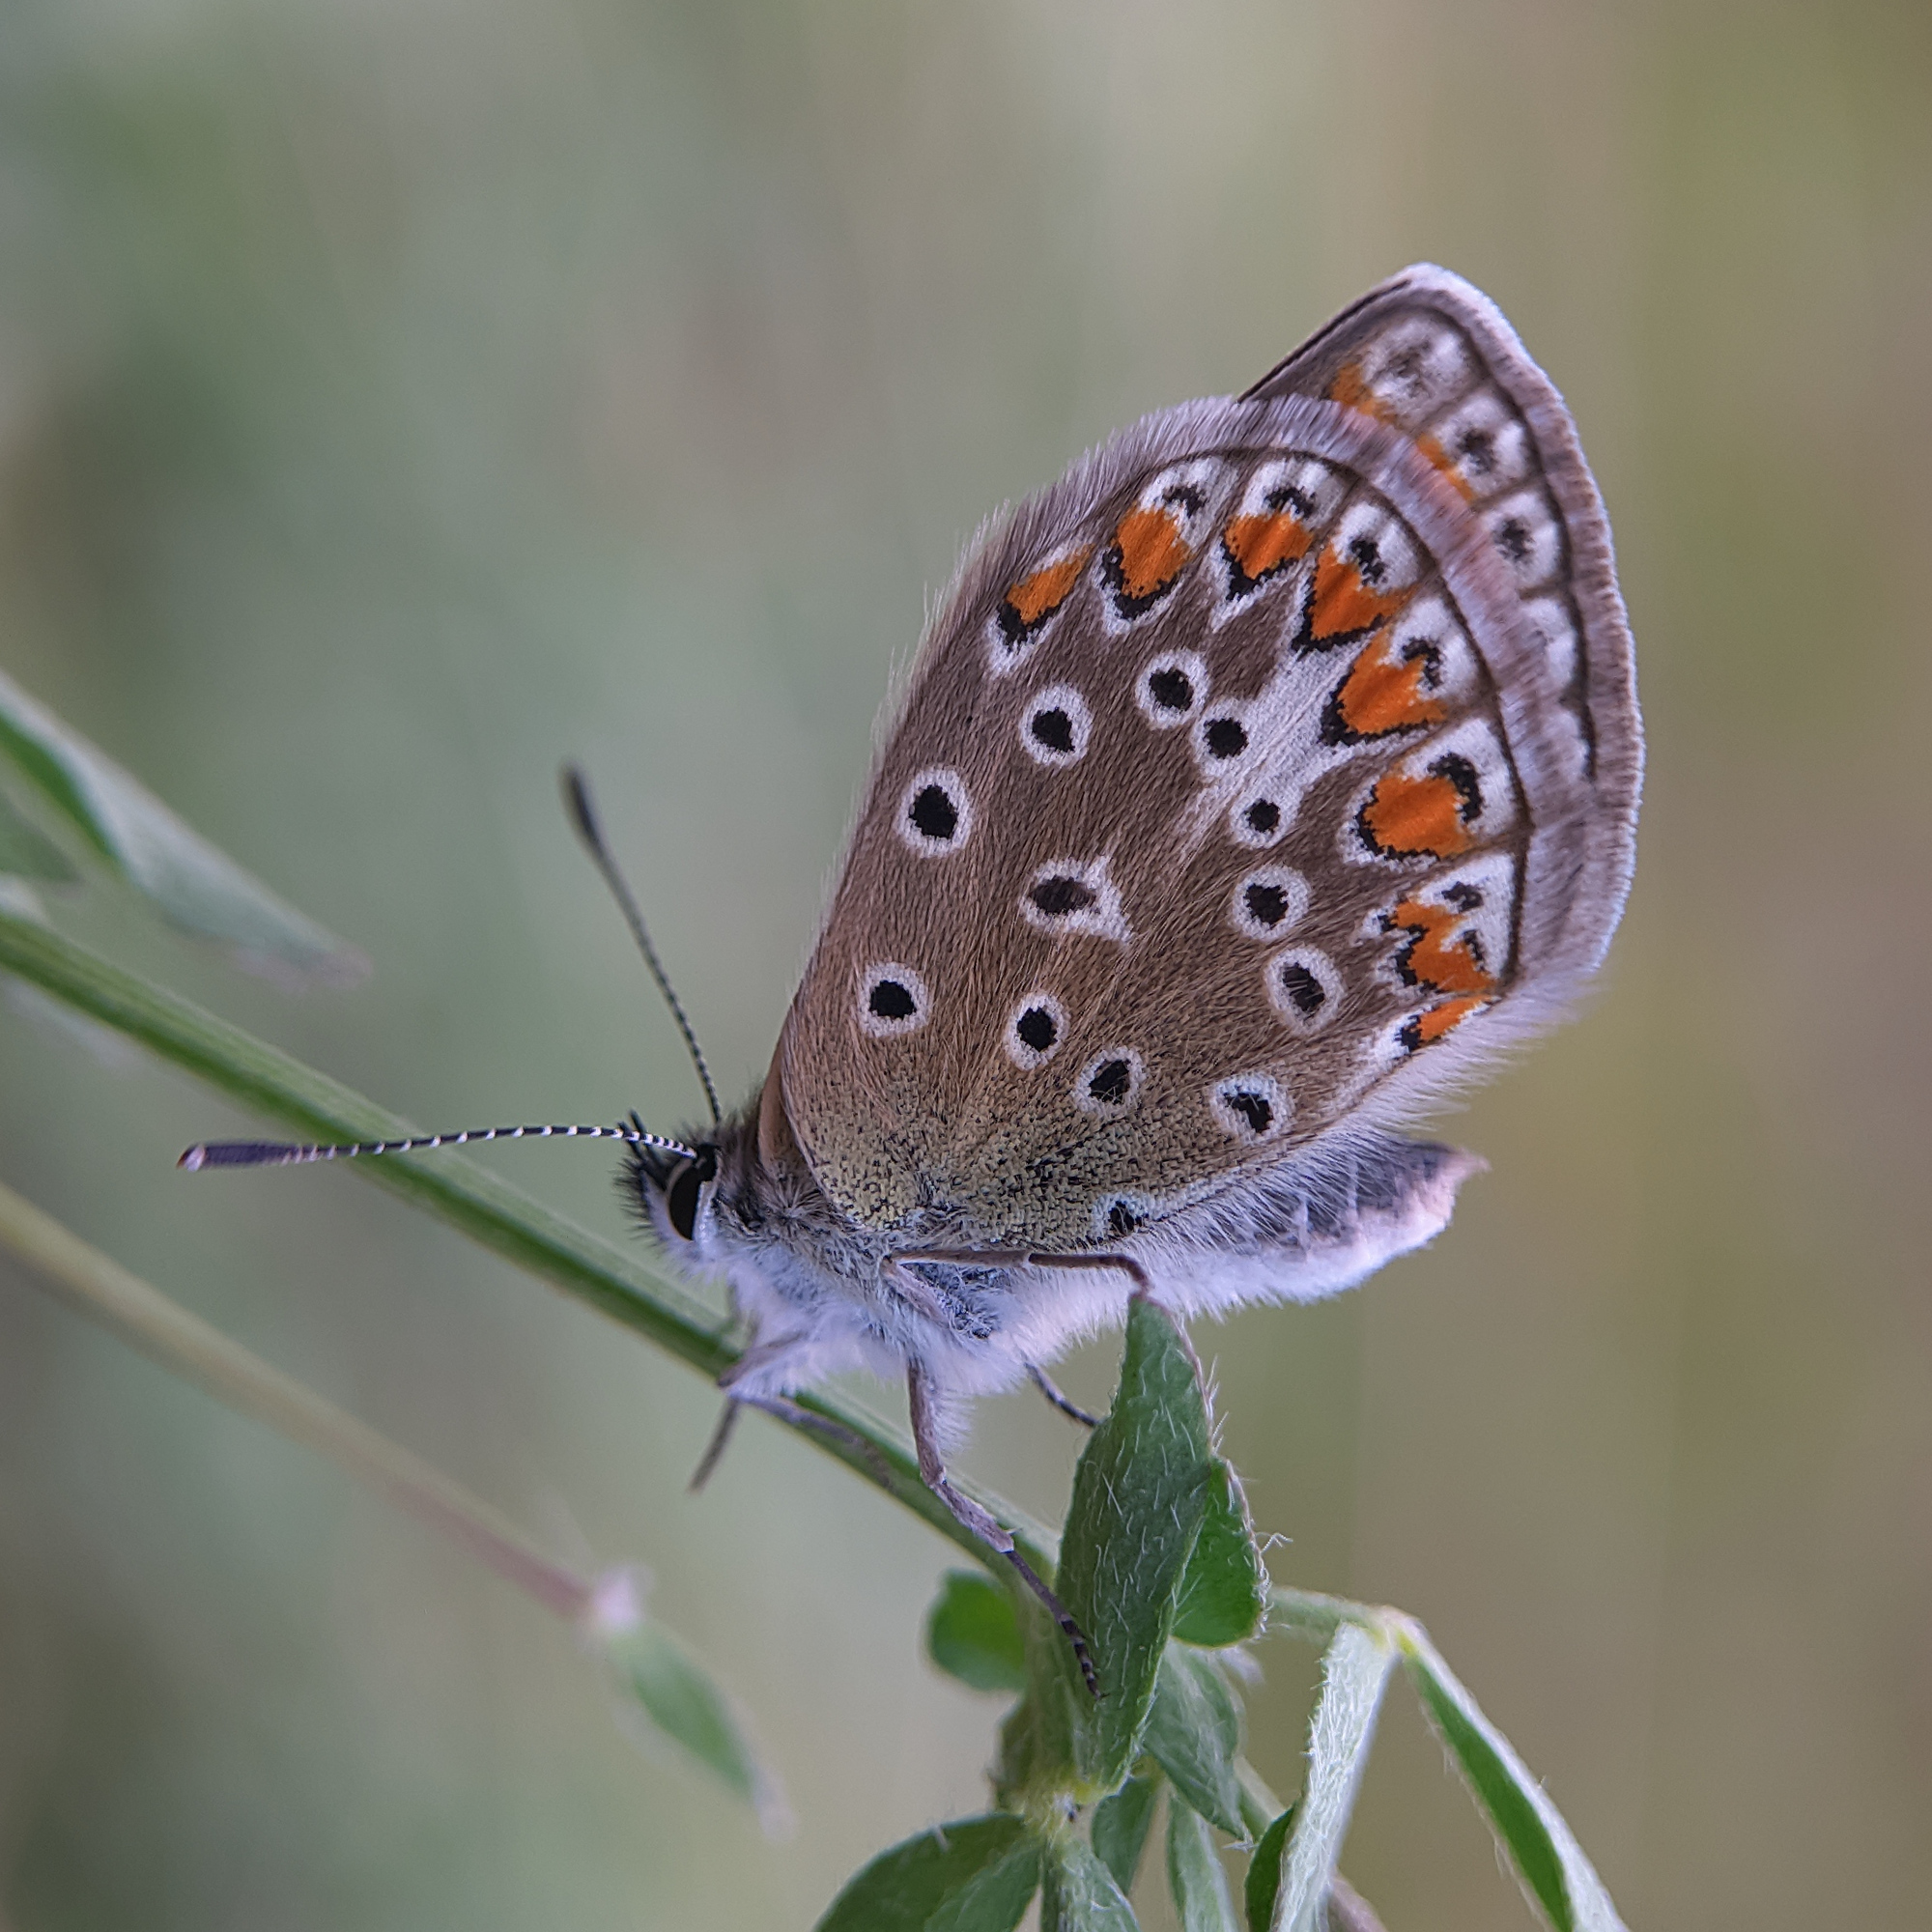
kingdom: Animalia
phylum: Arthropoda
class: Insecta
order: Lepidoptera
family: Lycaenidae
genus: Polyommatus
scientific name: Polyommatus icarus
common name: Common blue
